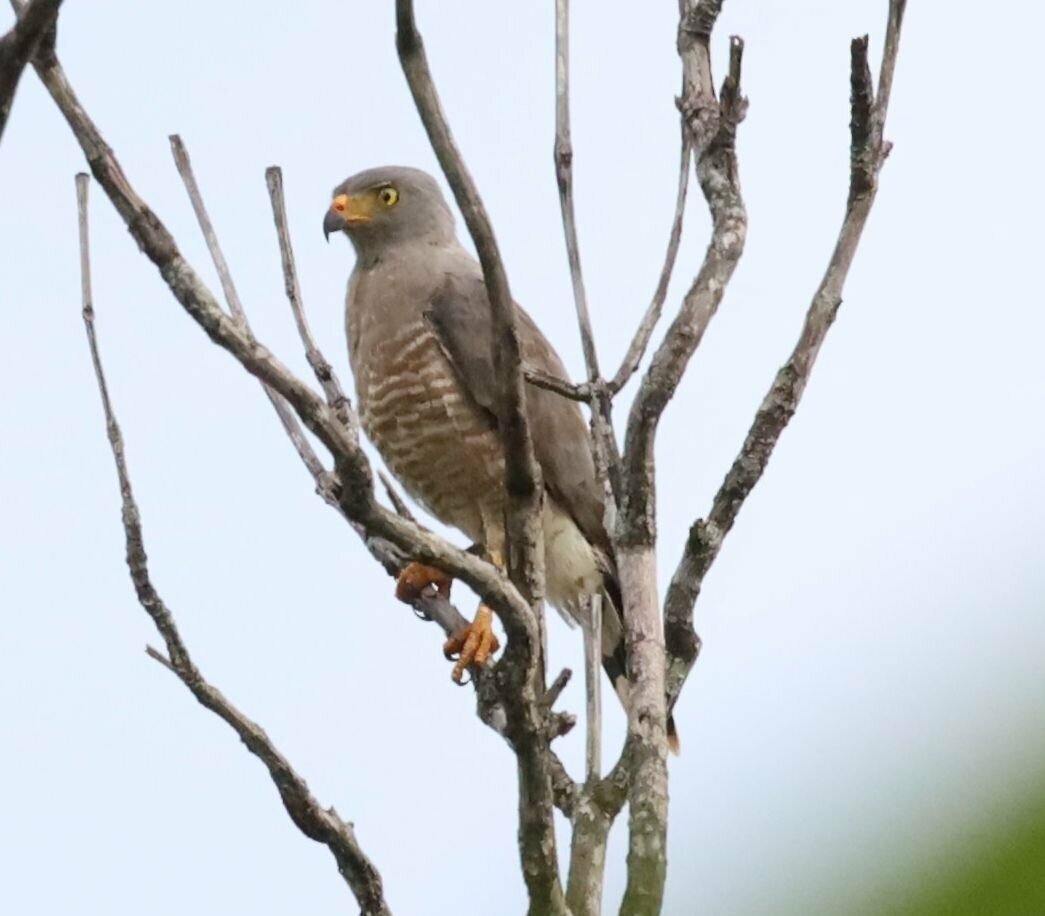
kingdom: Animalia
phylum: Chordata
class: Aves
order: Accipitriformes
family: Accipitridae
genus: Rupornis
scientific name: Rupornis magnirostris
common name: Roadside hawk
